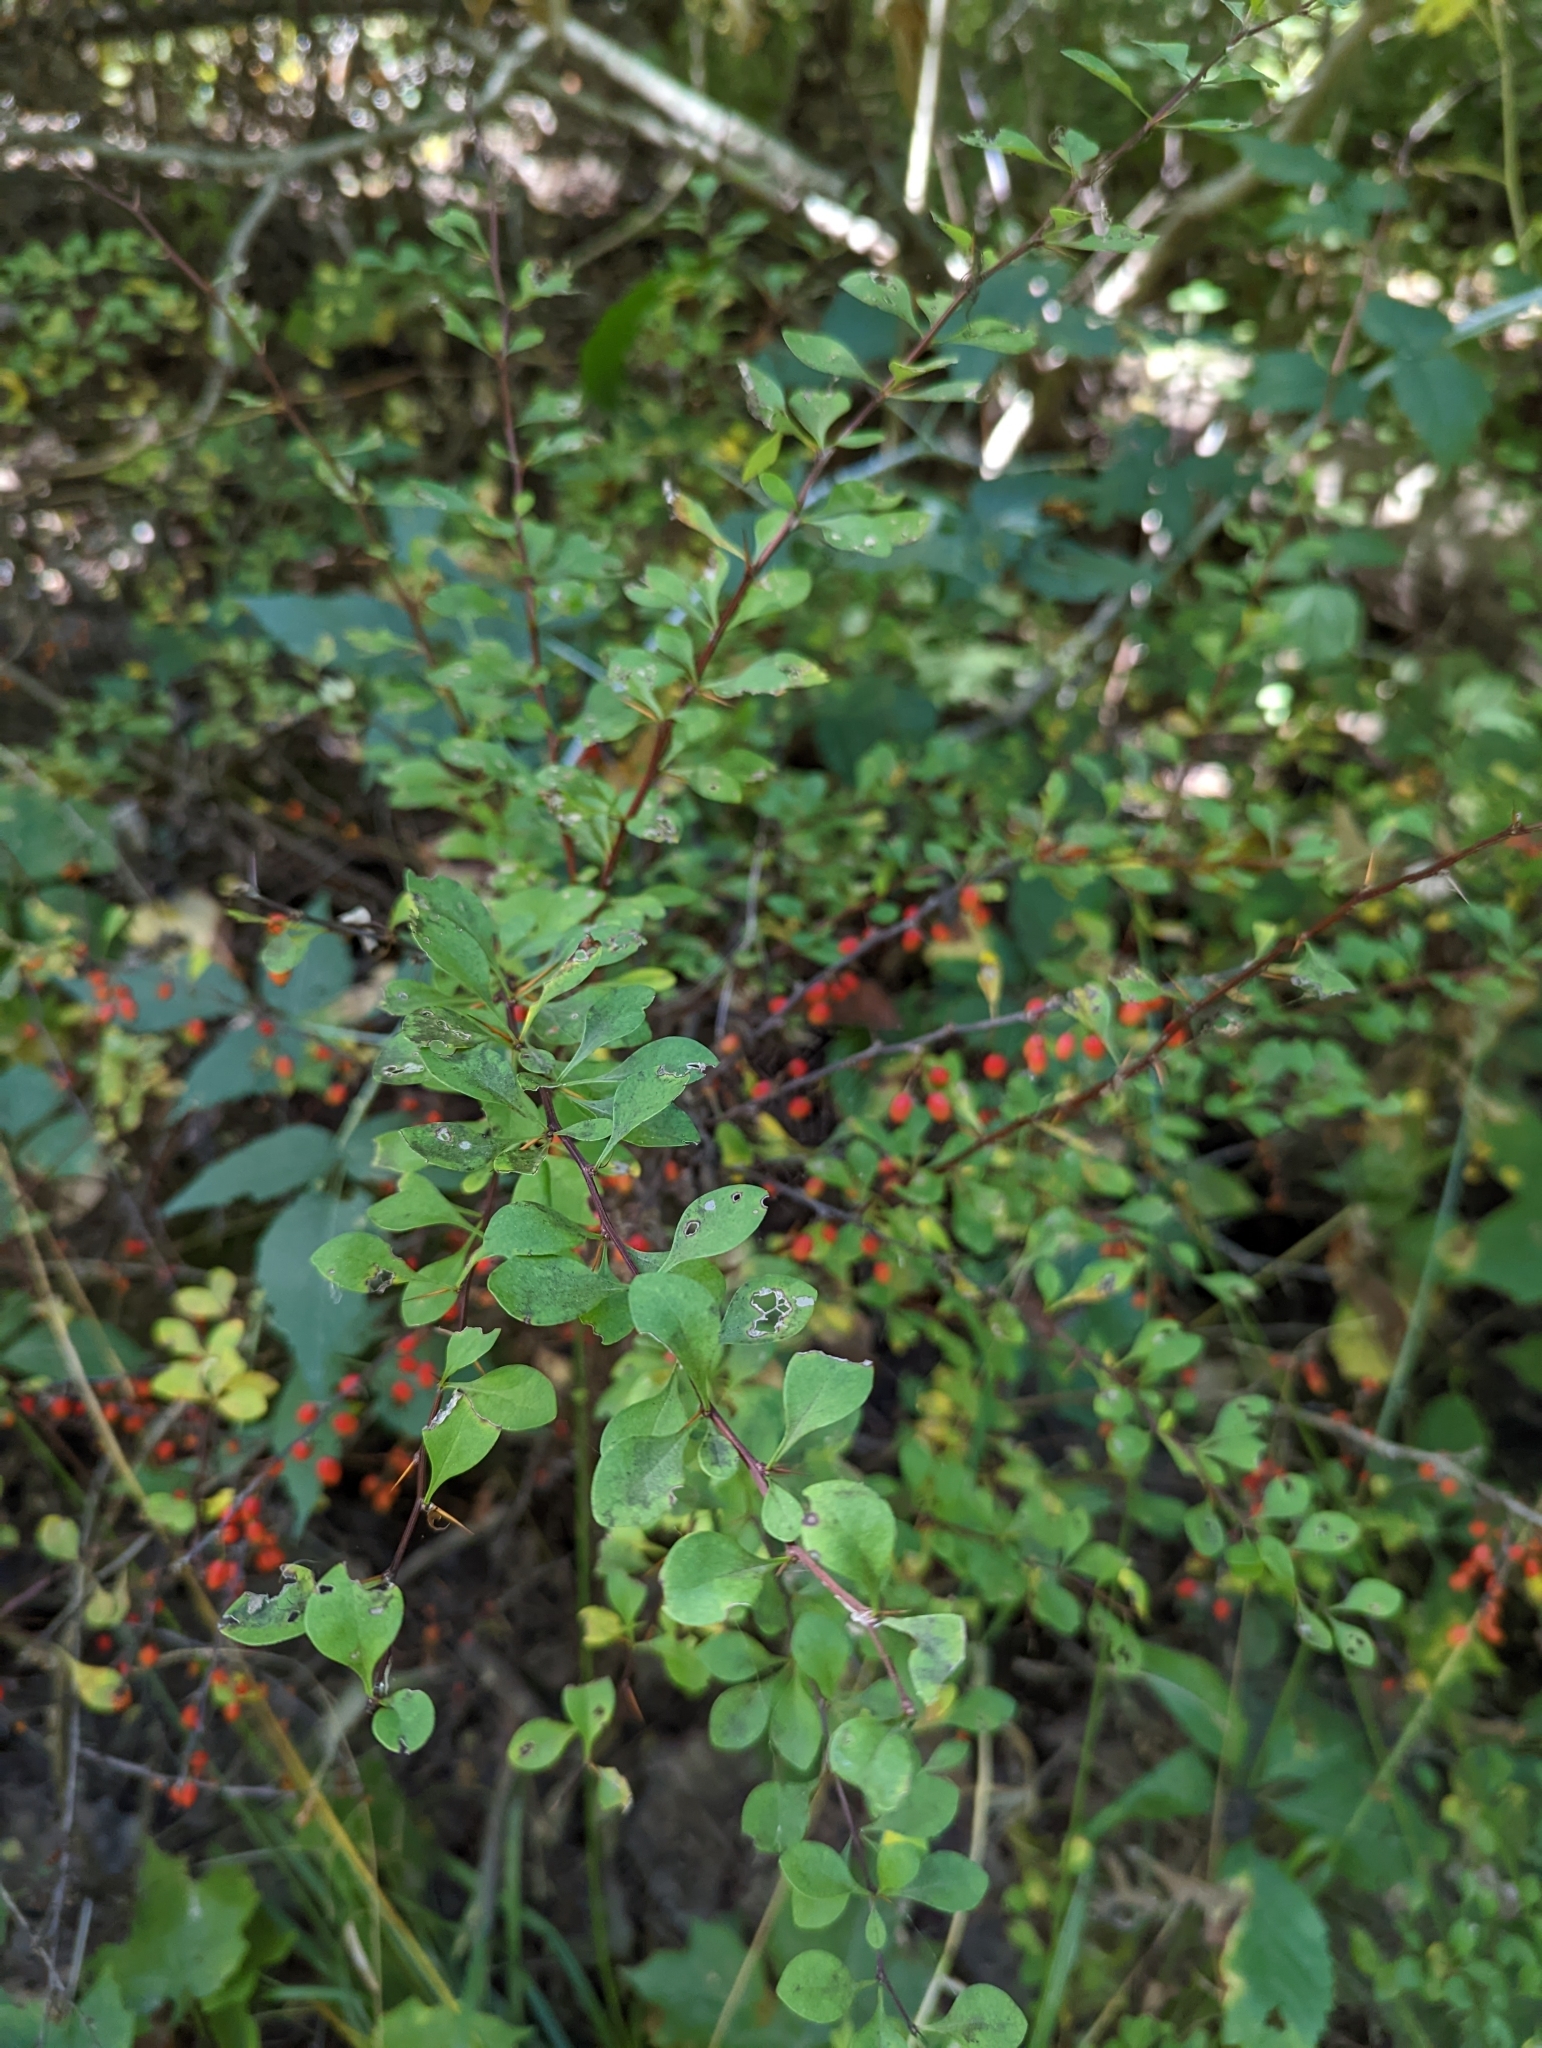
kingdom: Plantae
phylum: Tracheophyta
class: Magnoliopsida
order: Ranunculales
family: Berberidaceae
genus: Berberis
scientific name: Berberis thunbergii
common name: Japanese barberry
